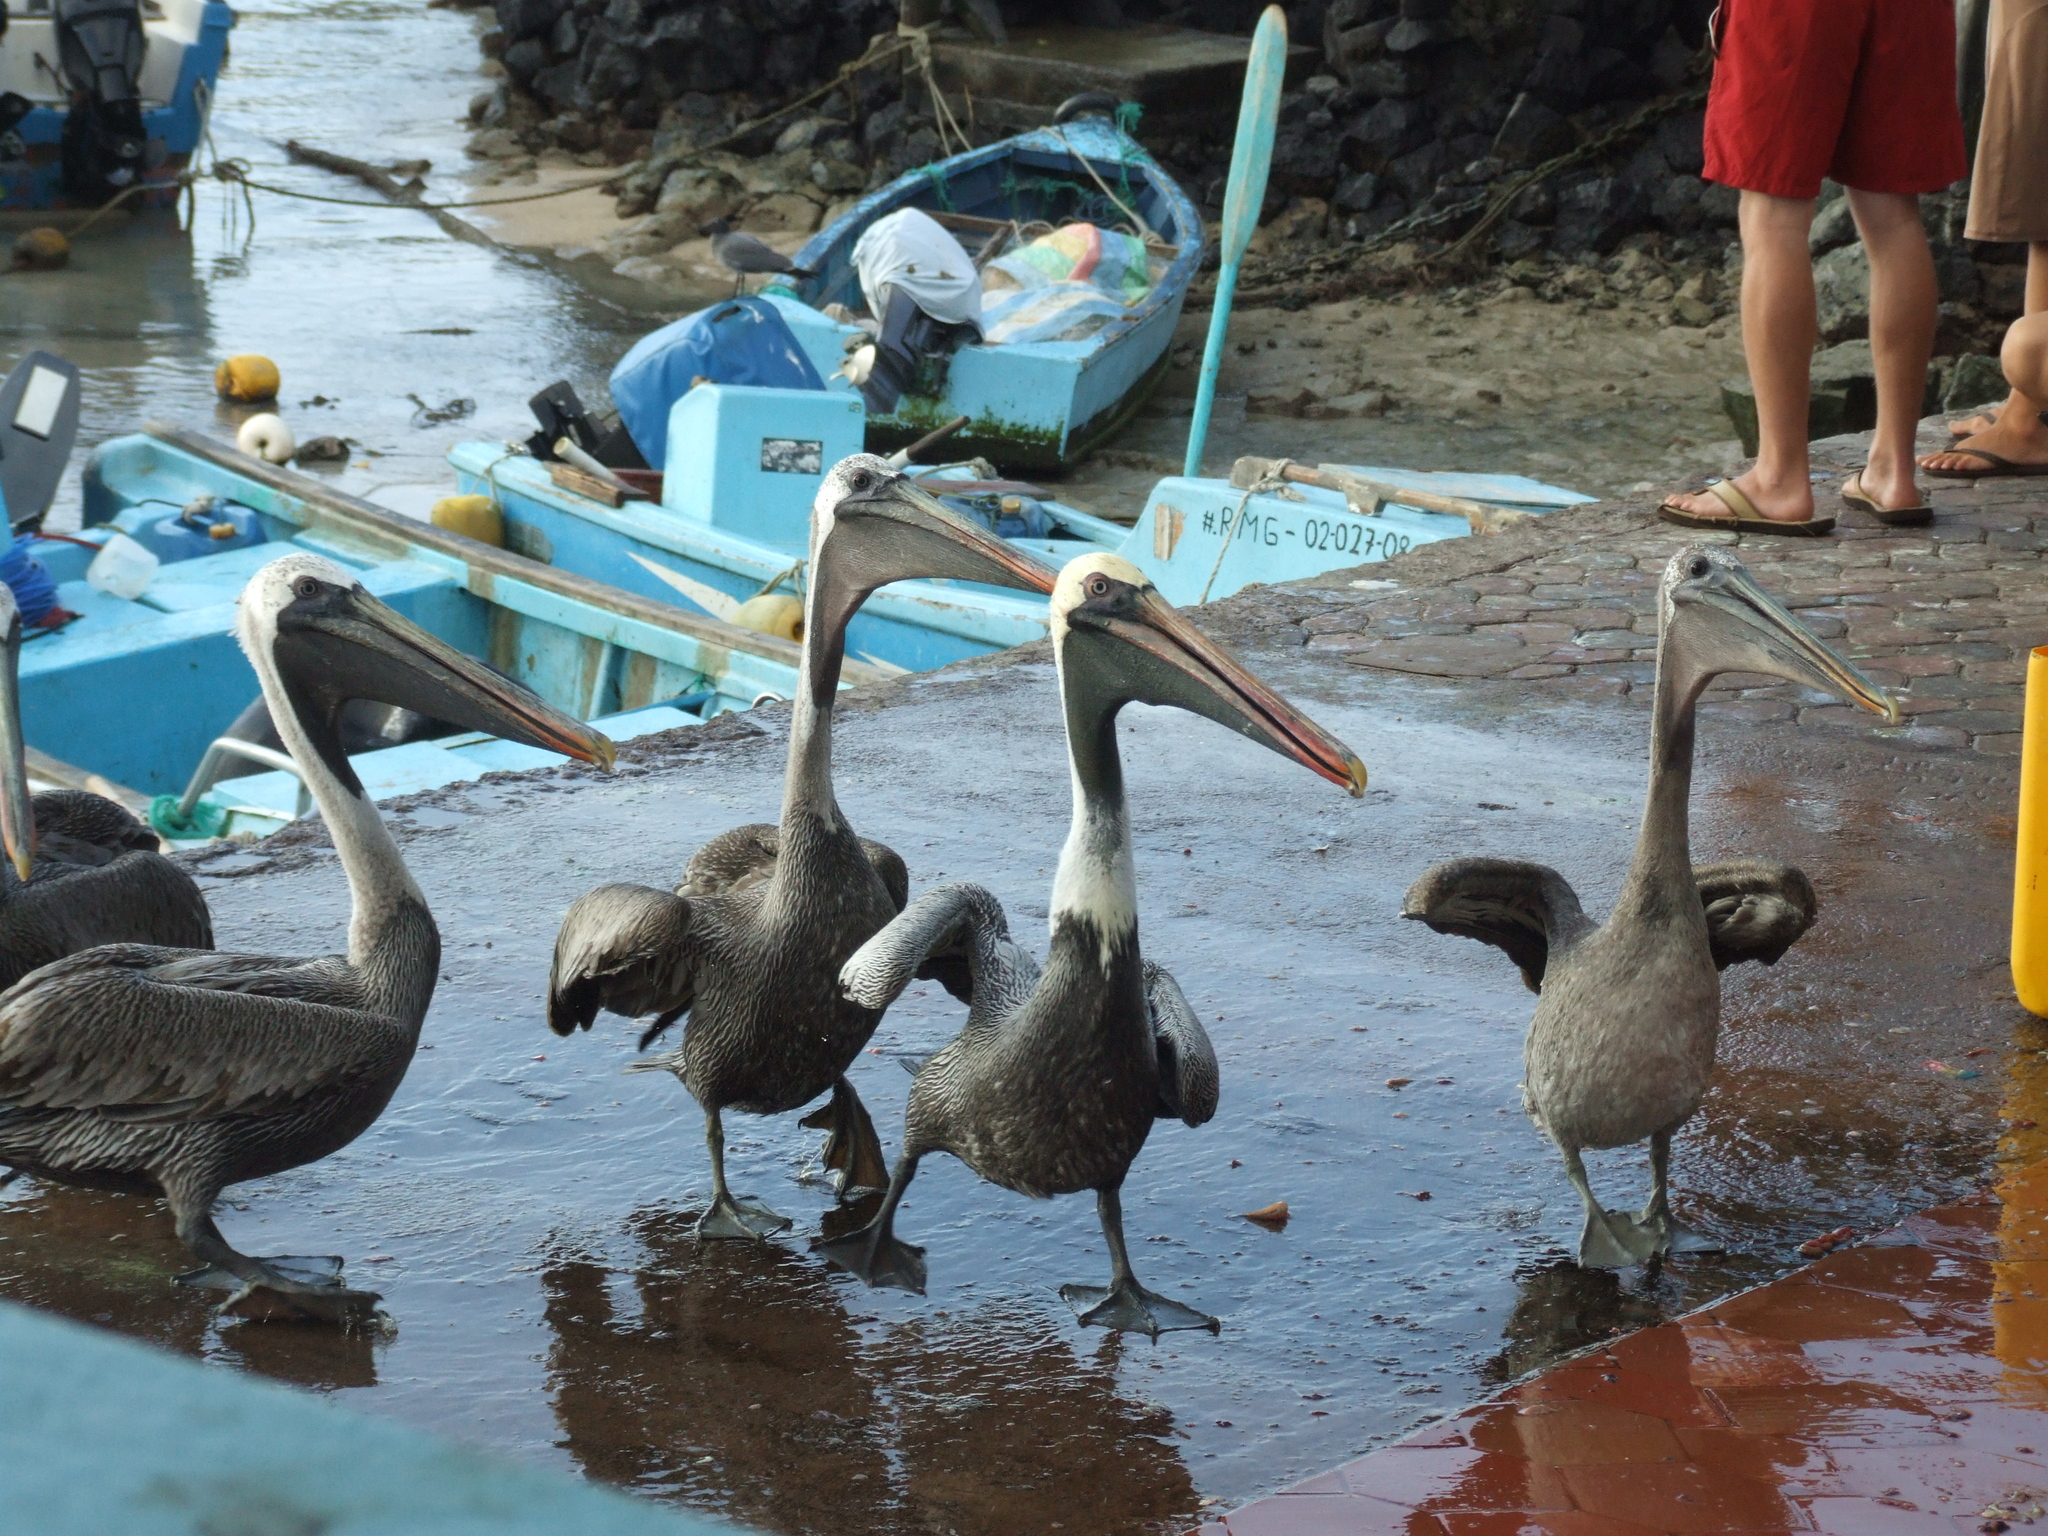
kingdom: Animalia
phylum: Chordata
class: Aves
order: Pelecaniformes
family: Pelecanidae
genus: Pelecanus
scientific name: Pelecanus occidentalis
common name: Brown pelican
